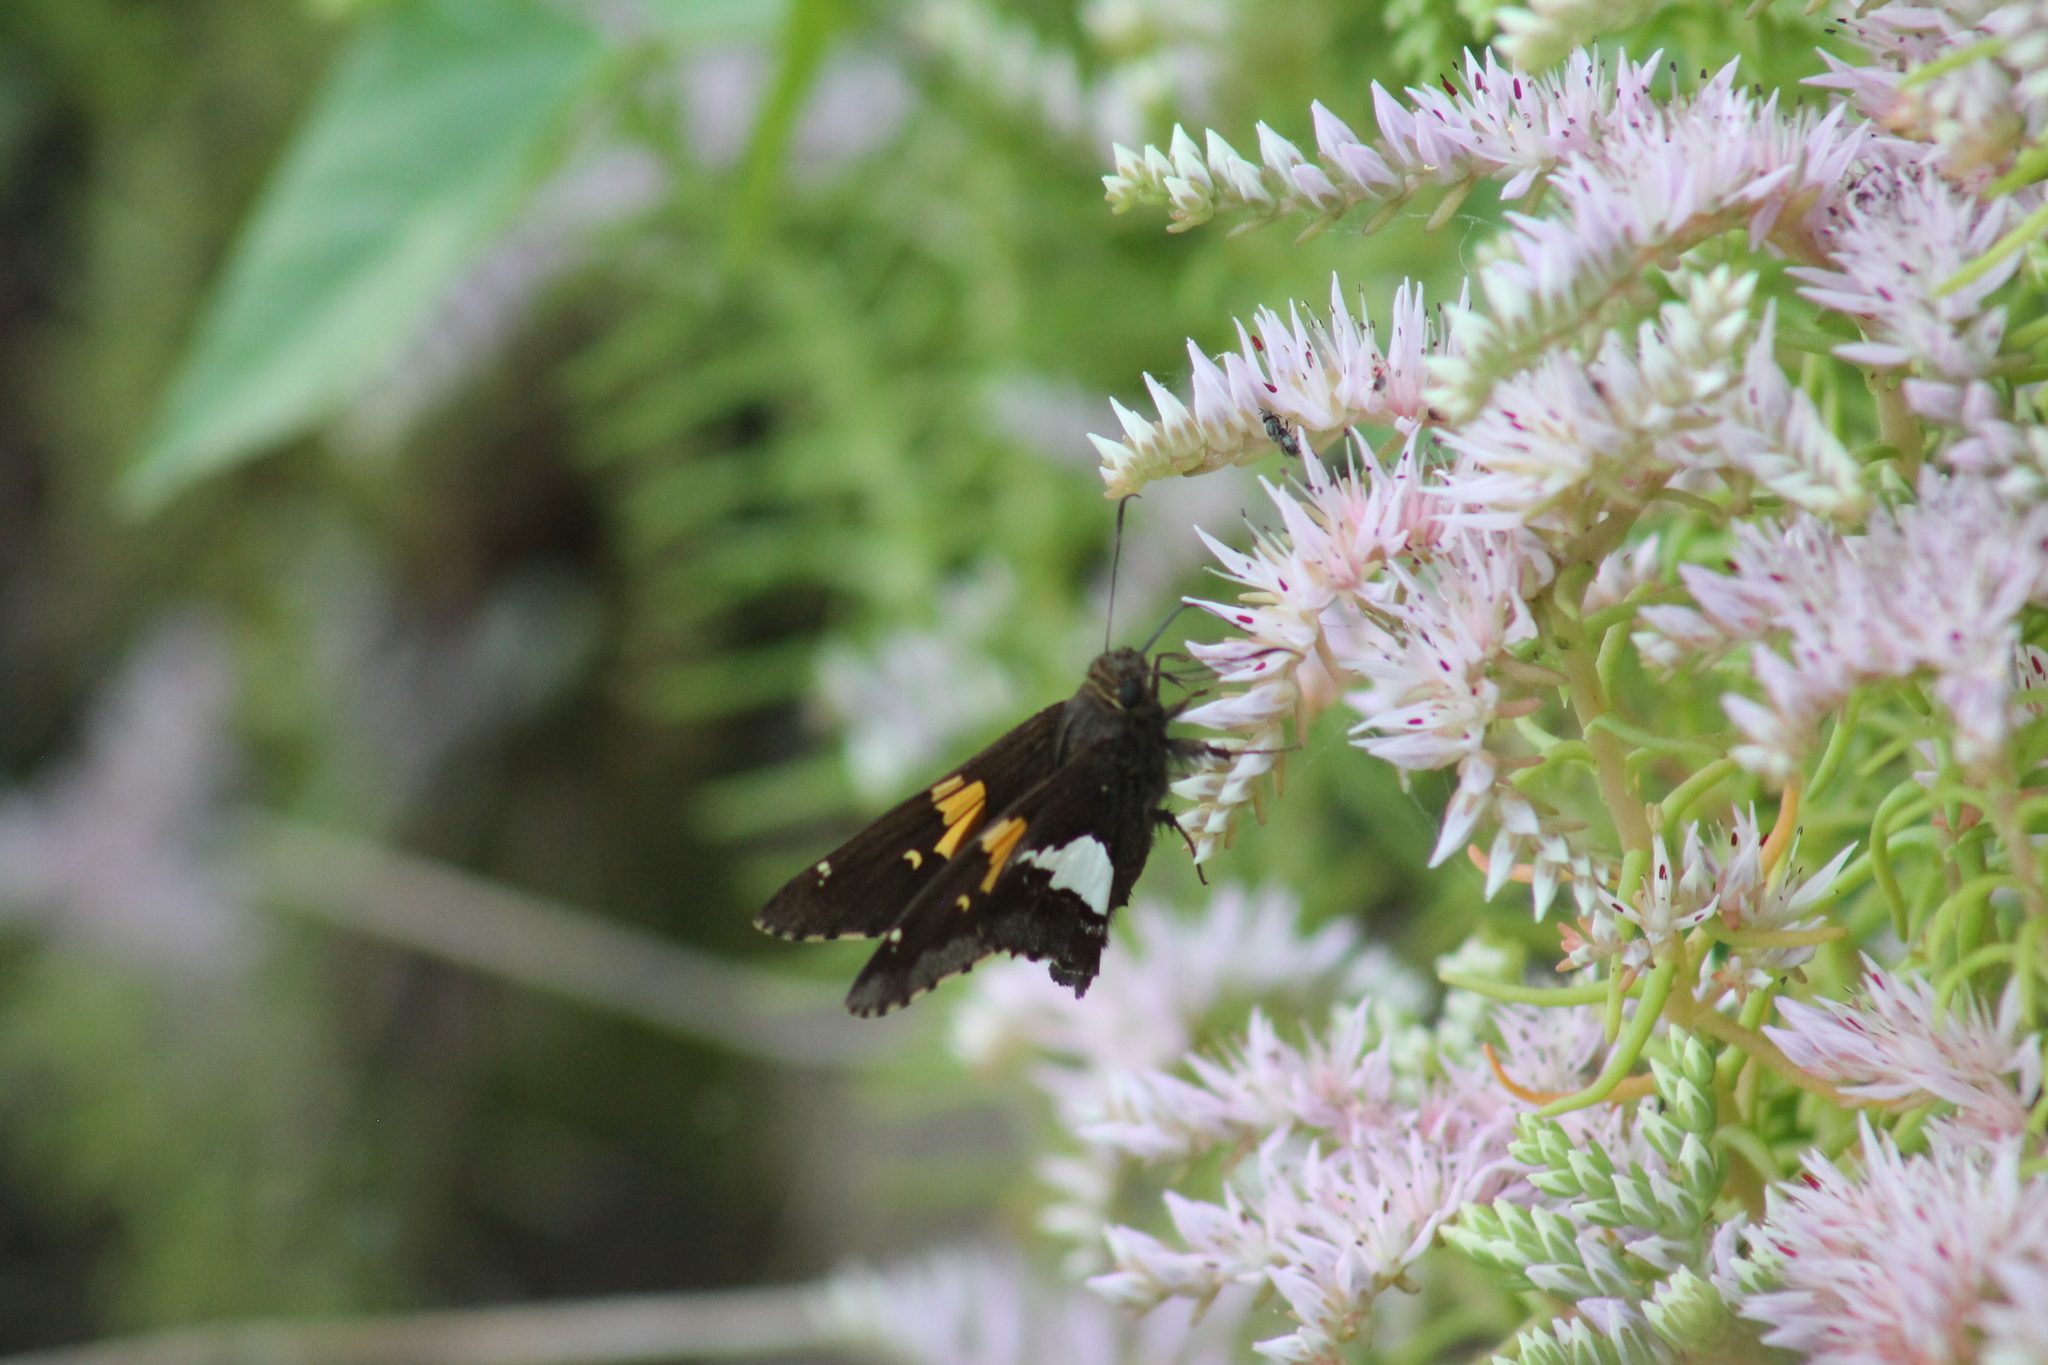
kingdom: Animalia
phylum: Arthropoda
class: Insecta
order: Lepidoptera
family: Hesperiidae
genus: Epargyreus
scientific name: Epargyreus clarus
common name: Silver-spotted skipper
